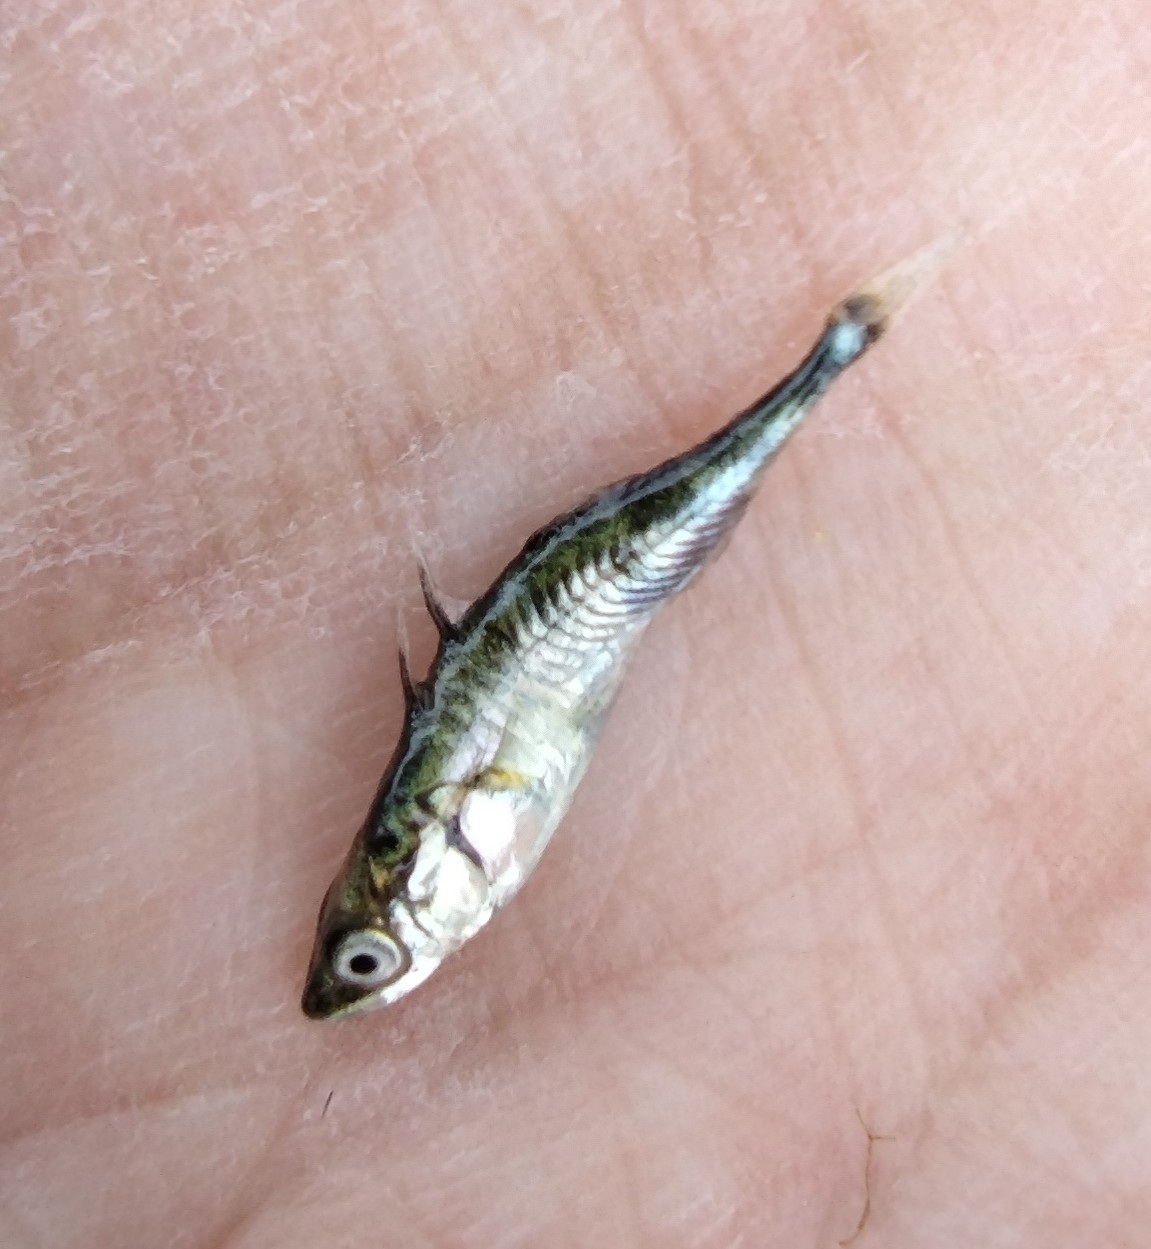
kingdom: Animalia
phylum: Chordata
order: Gasterosteiformes
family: Gasterosteidae
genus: Gasterosteus
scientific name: Gasterosteus aculeatus
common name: Three-spined stickleback
